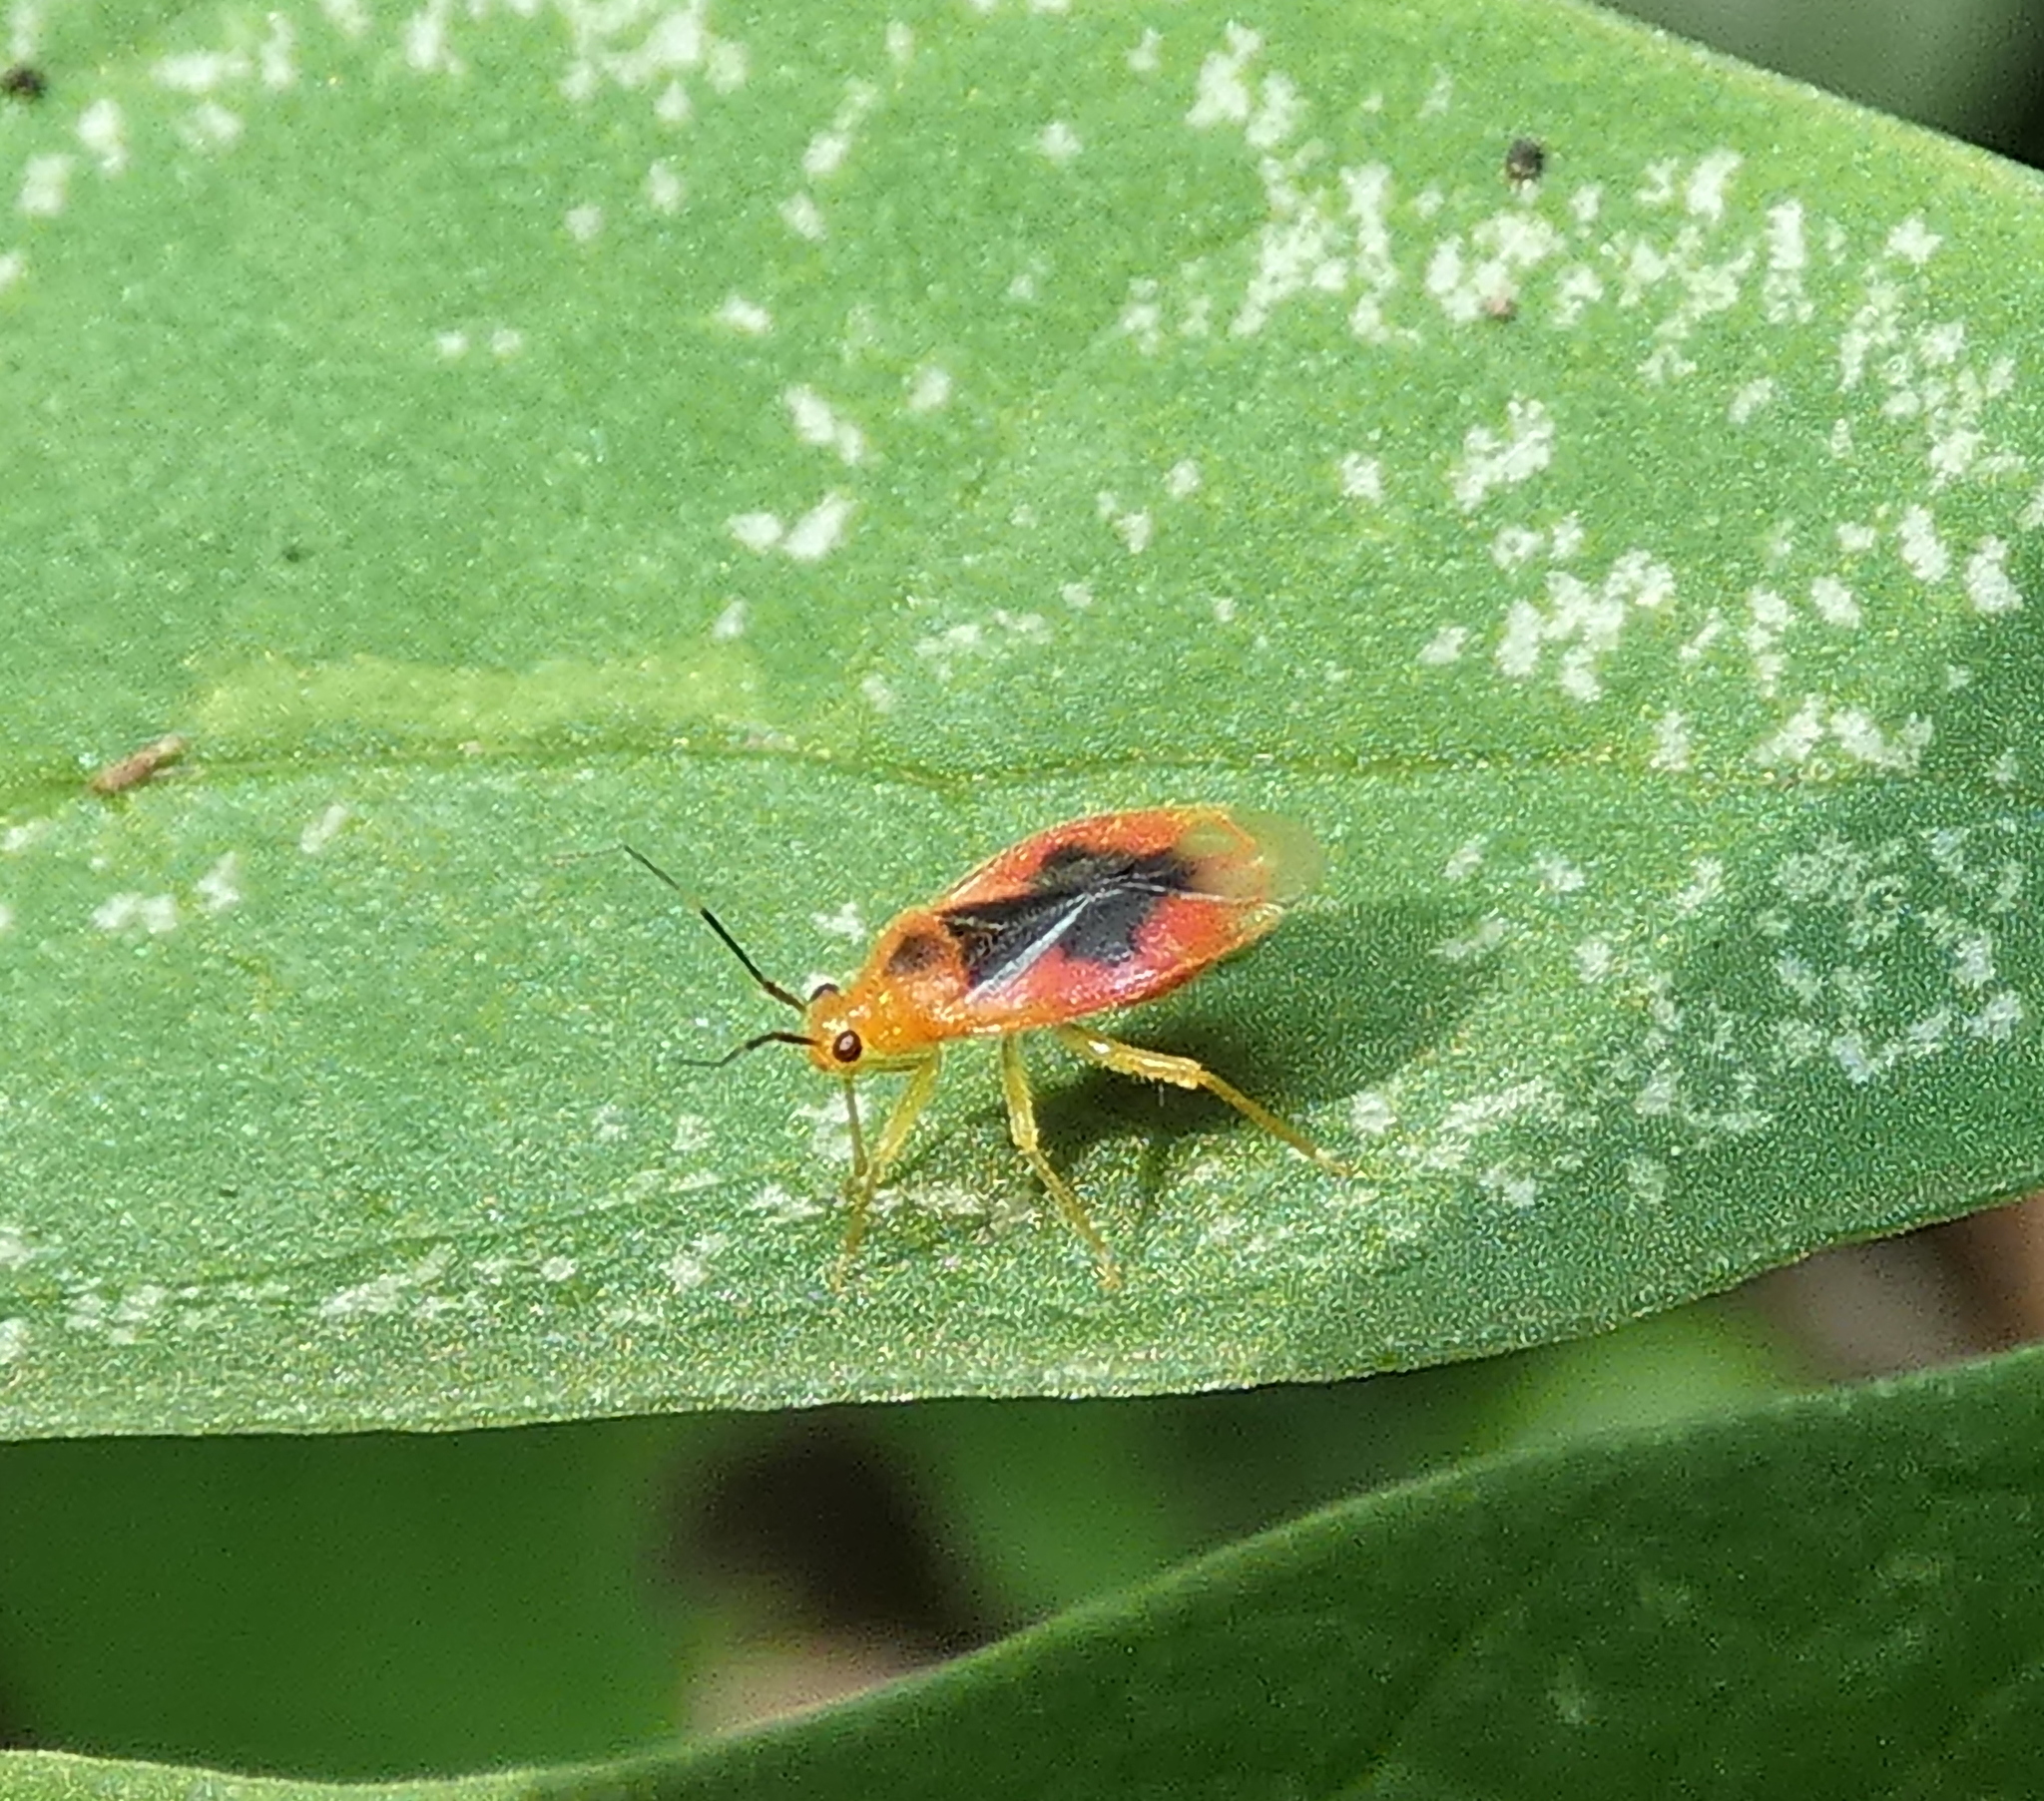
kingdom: Animalia
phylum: Arthropoda
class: Insecta
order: Hemiptera
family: Miridae
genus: Parafurius
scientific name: Parafurius discifer
